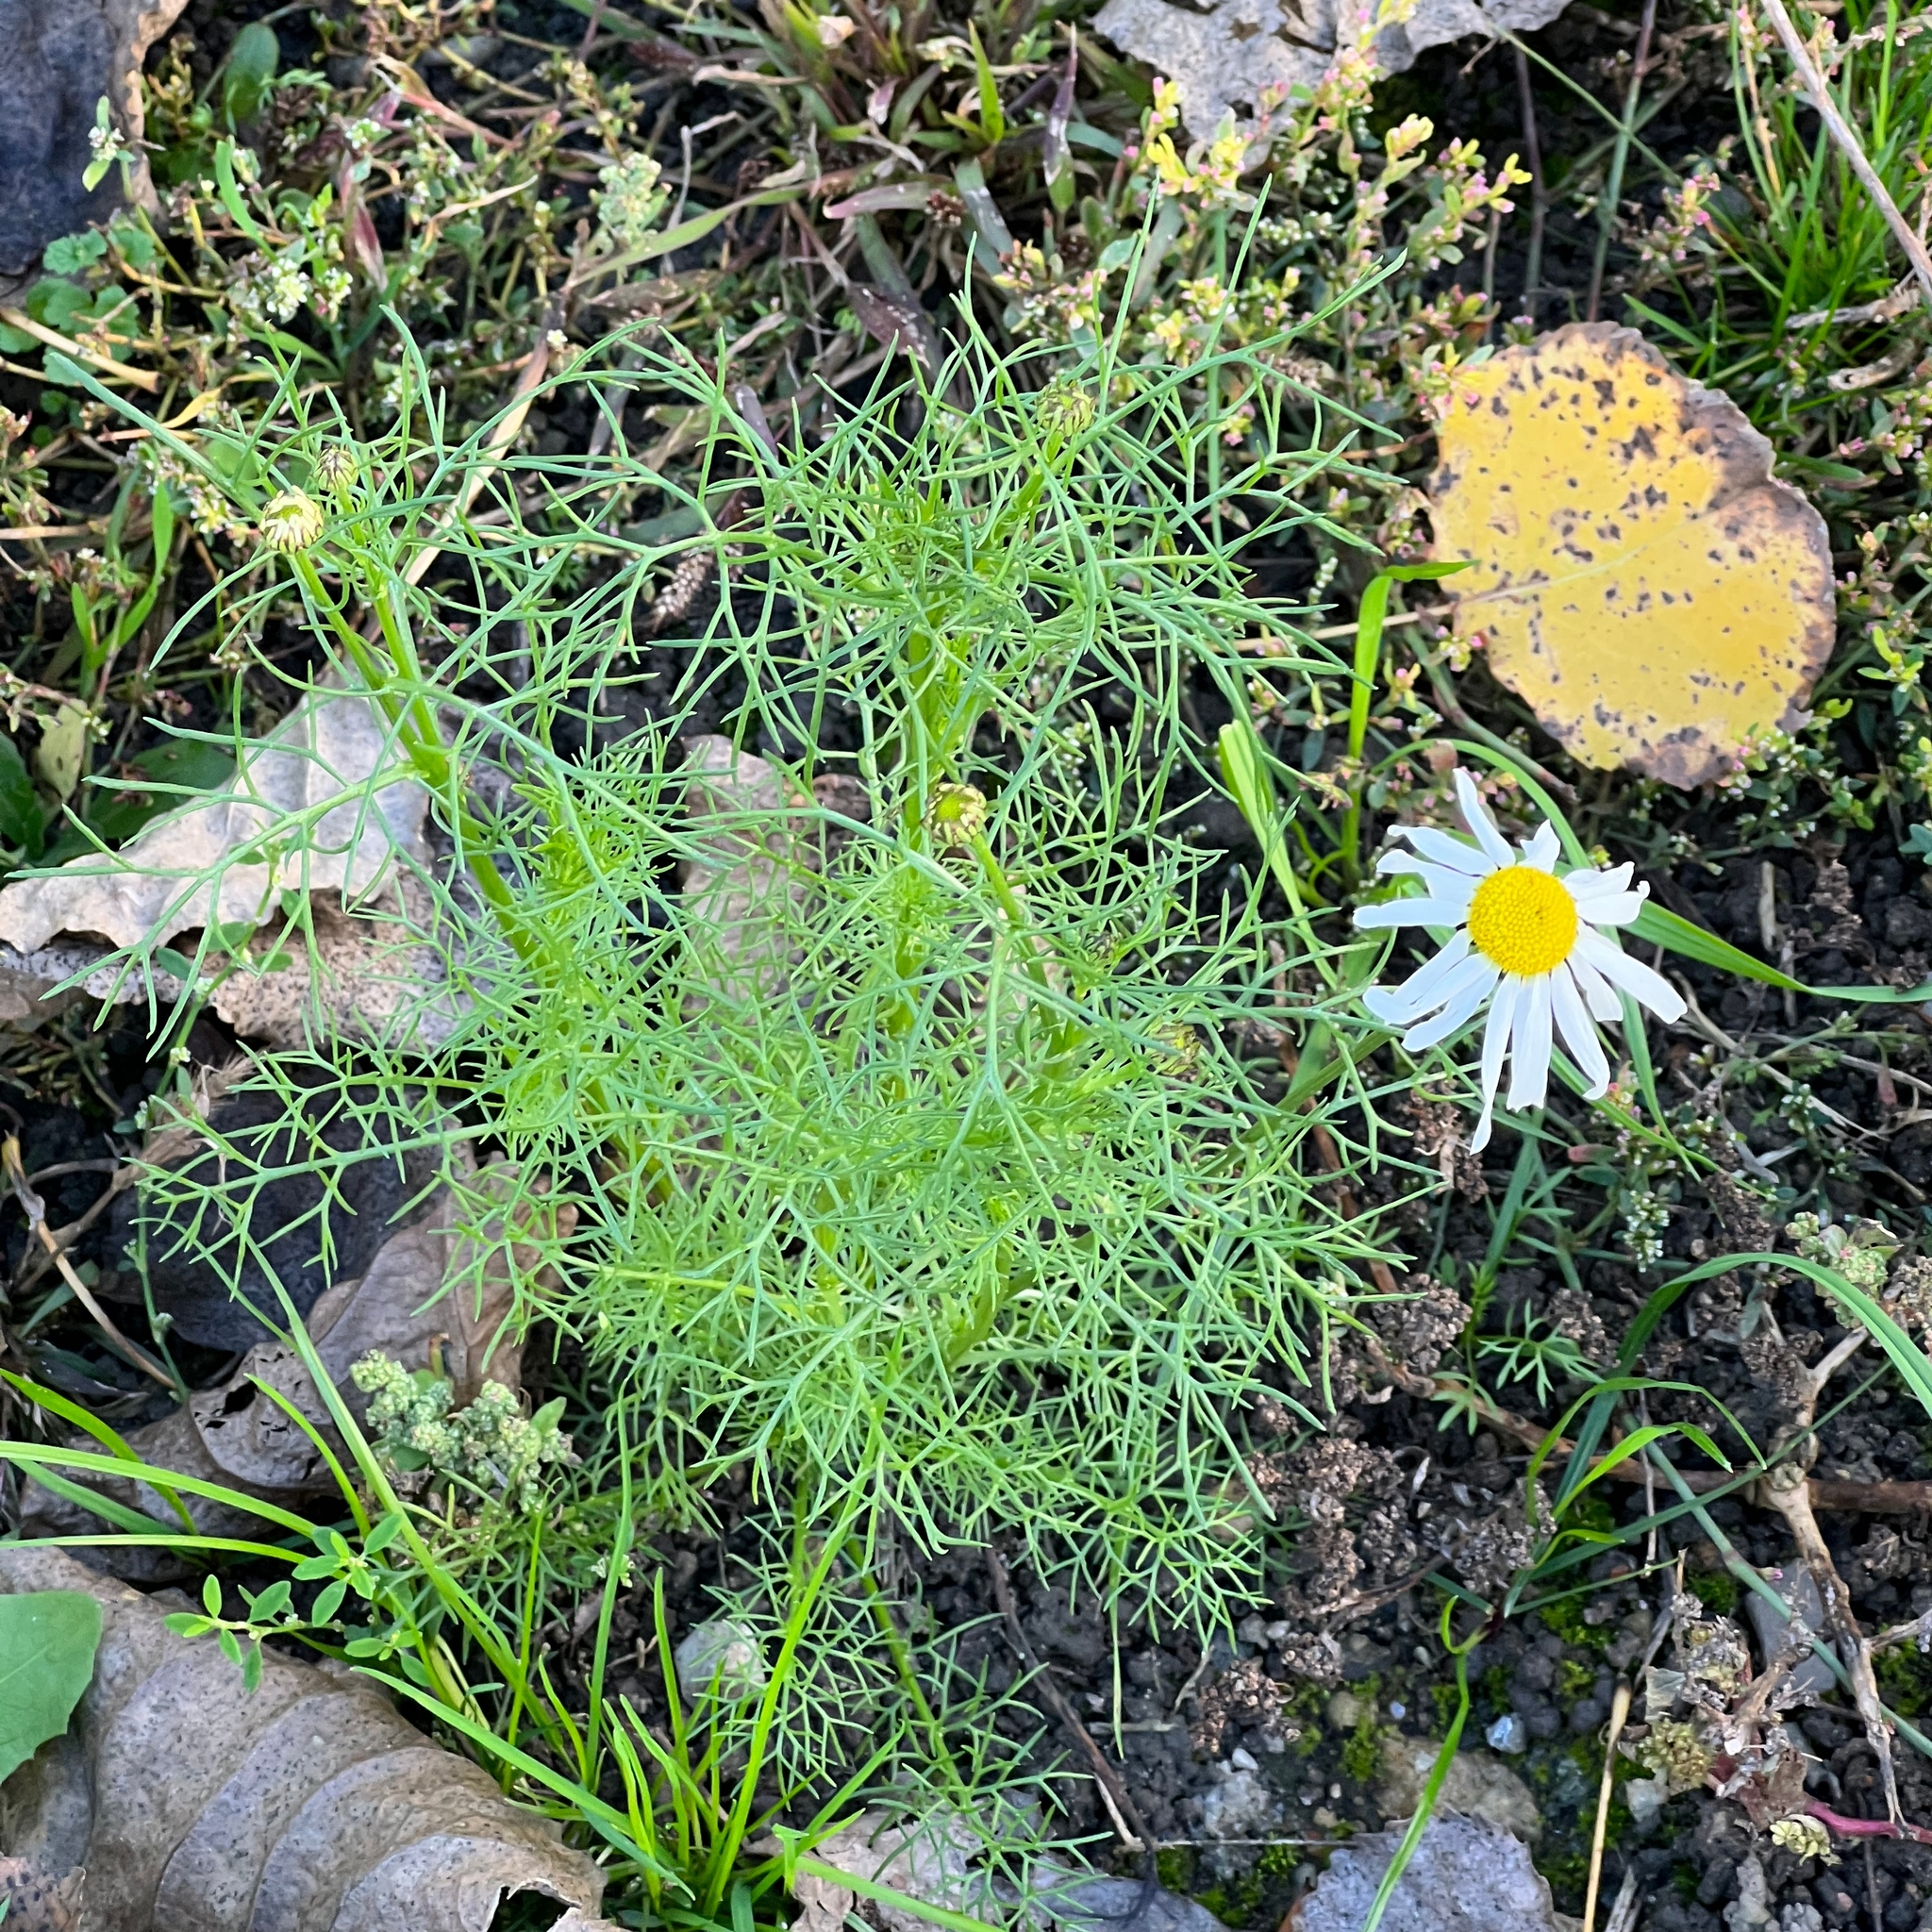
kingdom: Plantae
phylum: Tracheophyta
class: Magnoliopsida
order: Asterales
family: Asteraceae
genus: Tripleurospermum
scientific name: Tripleurospermum inodorum
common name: Scentless mayweed
